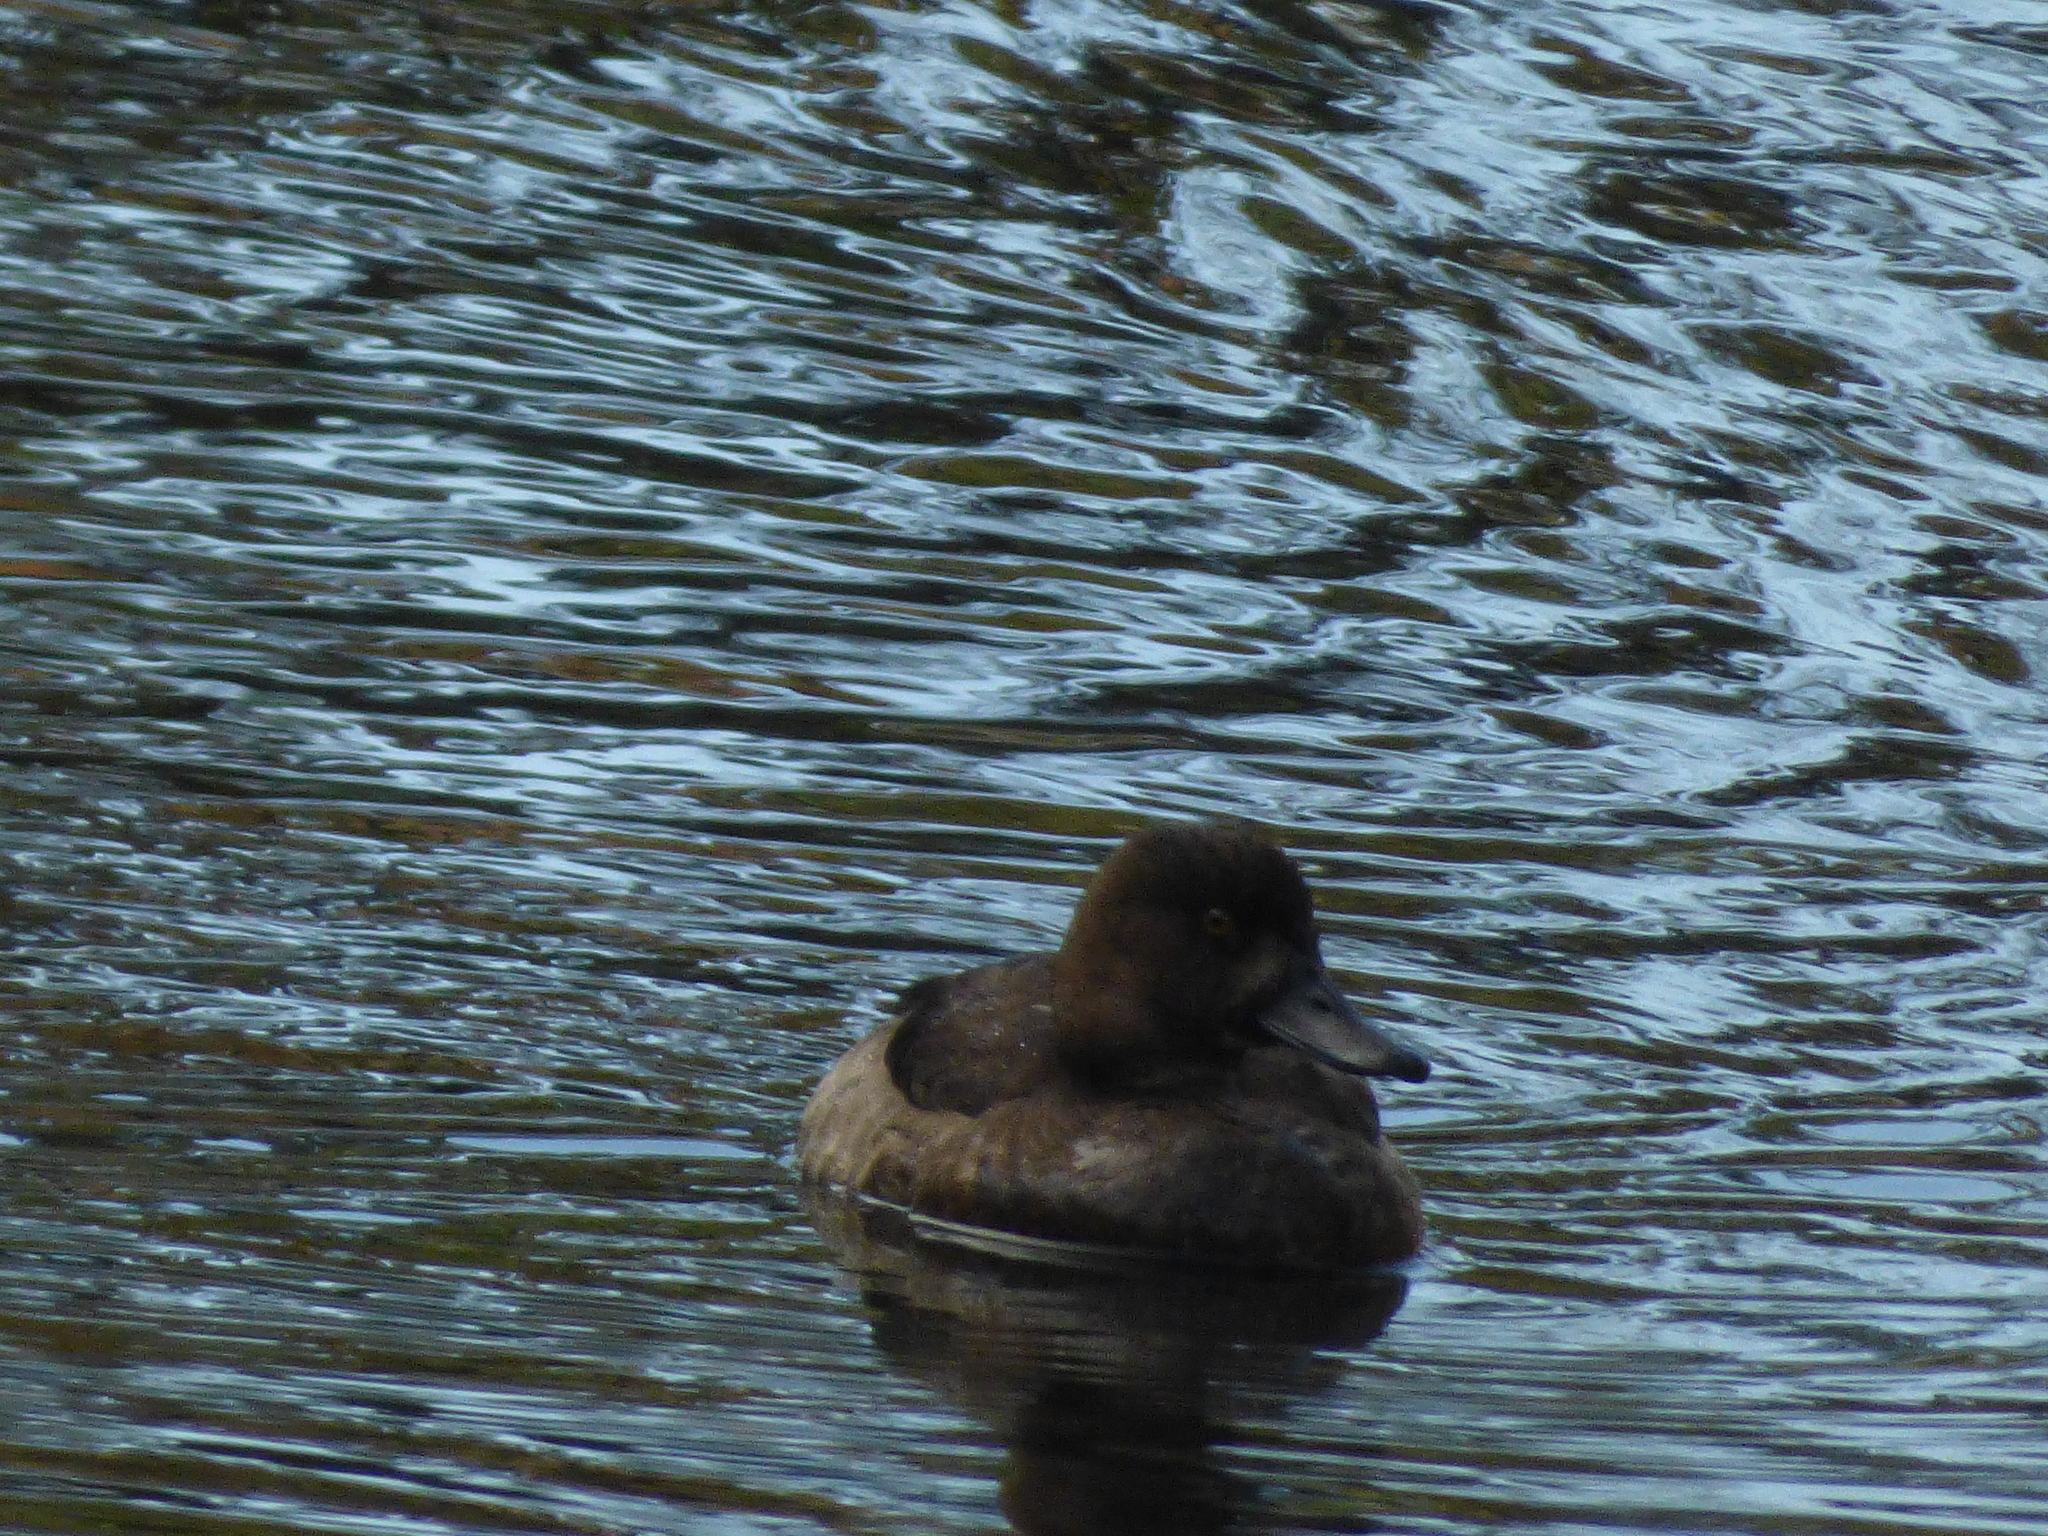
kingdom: Animalia
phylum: Chordata
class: Aves
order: Anseriformes
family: Anatidae
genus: Aythya
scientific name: Aythya fuligula
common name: Tufted duck
